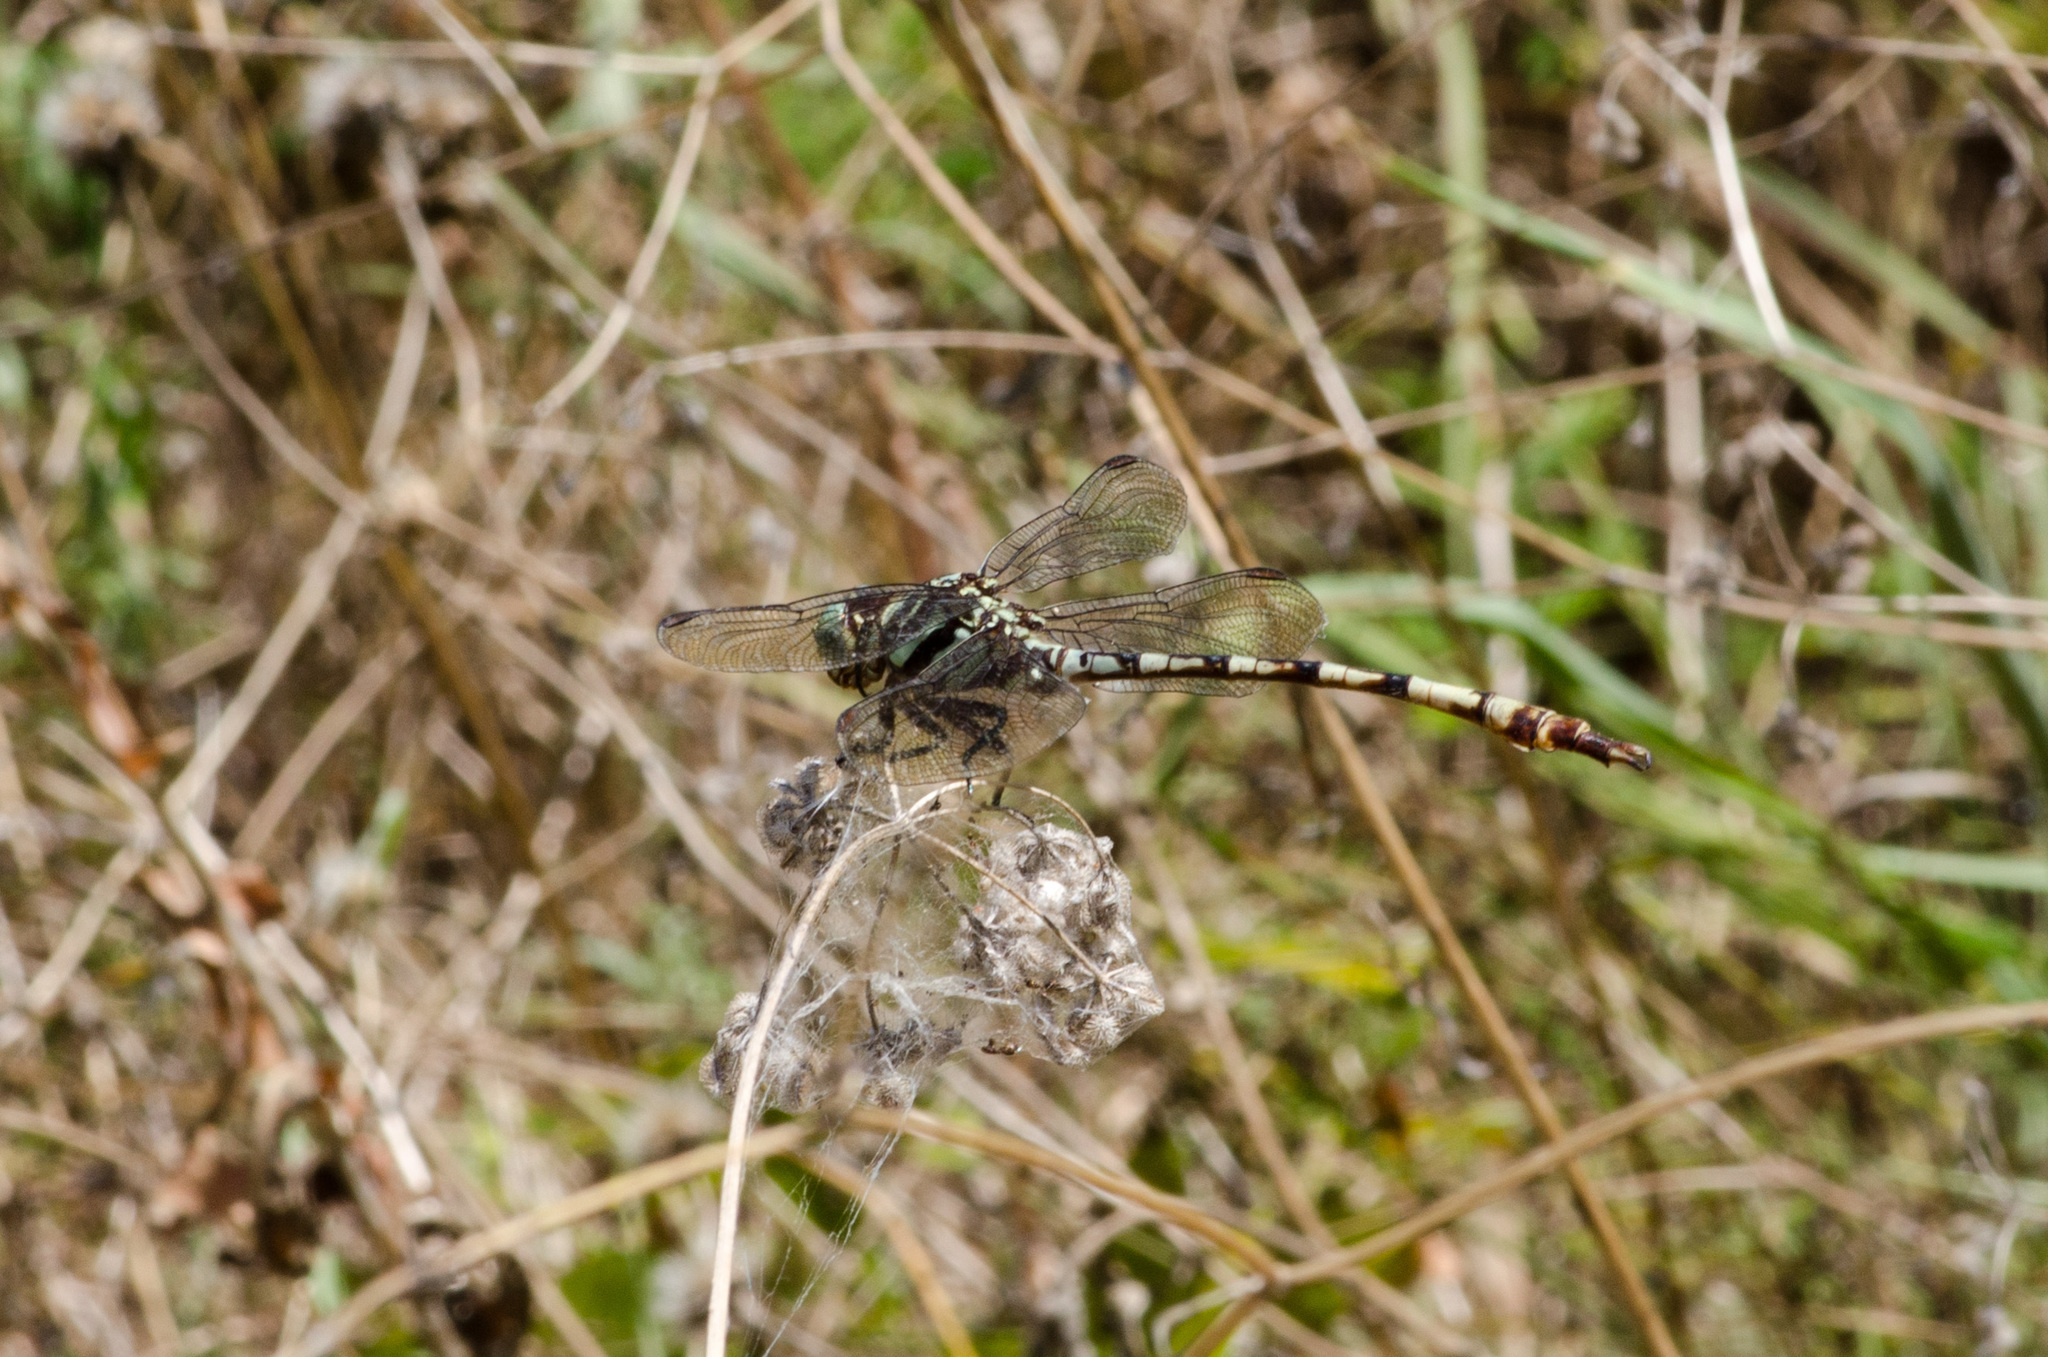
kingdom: Animalia
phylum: Arthropoda
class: Insecta
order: Odonata
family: Gomphidae
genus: Aphylla
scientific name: Aphylla angustifolia
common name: Broad-striped forceptail
